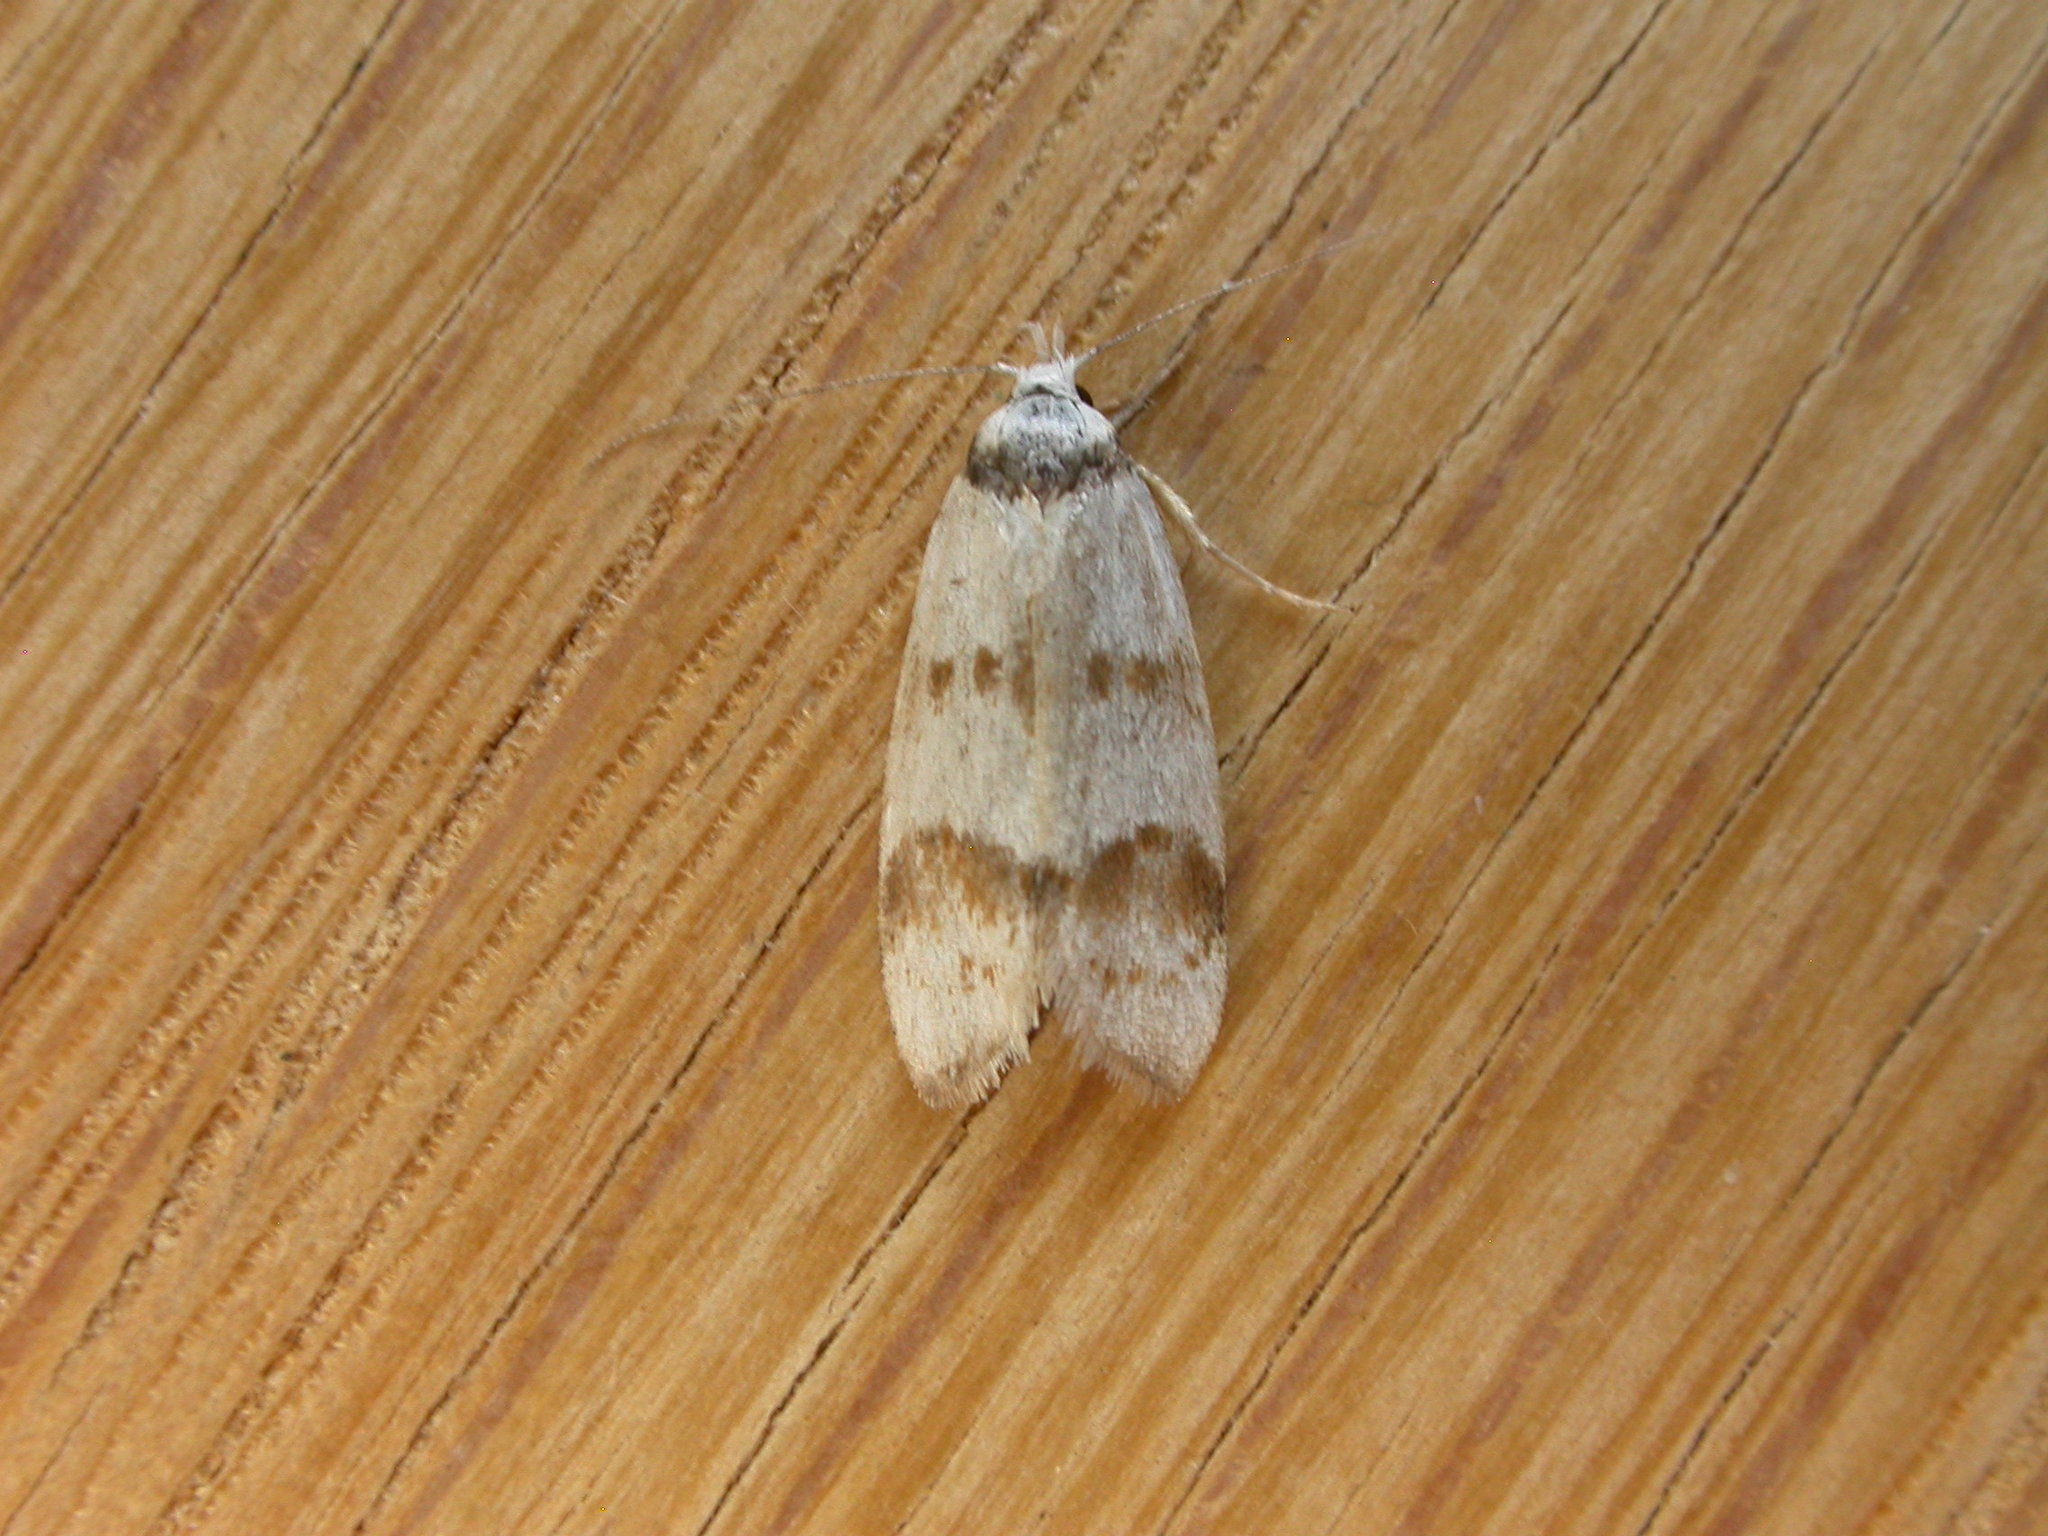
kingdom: Animalia
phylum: Arthropoda
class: Insecta
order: Lepidoptera
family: Oecophoridae
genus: Chezala
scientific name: Chezala brachypepla
